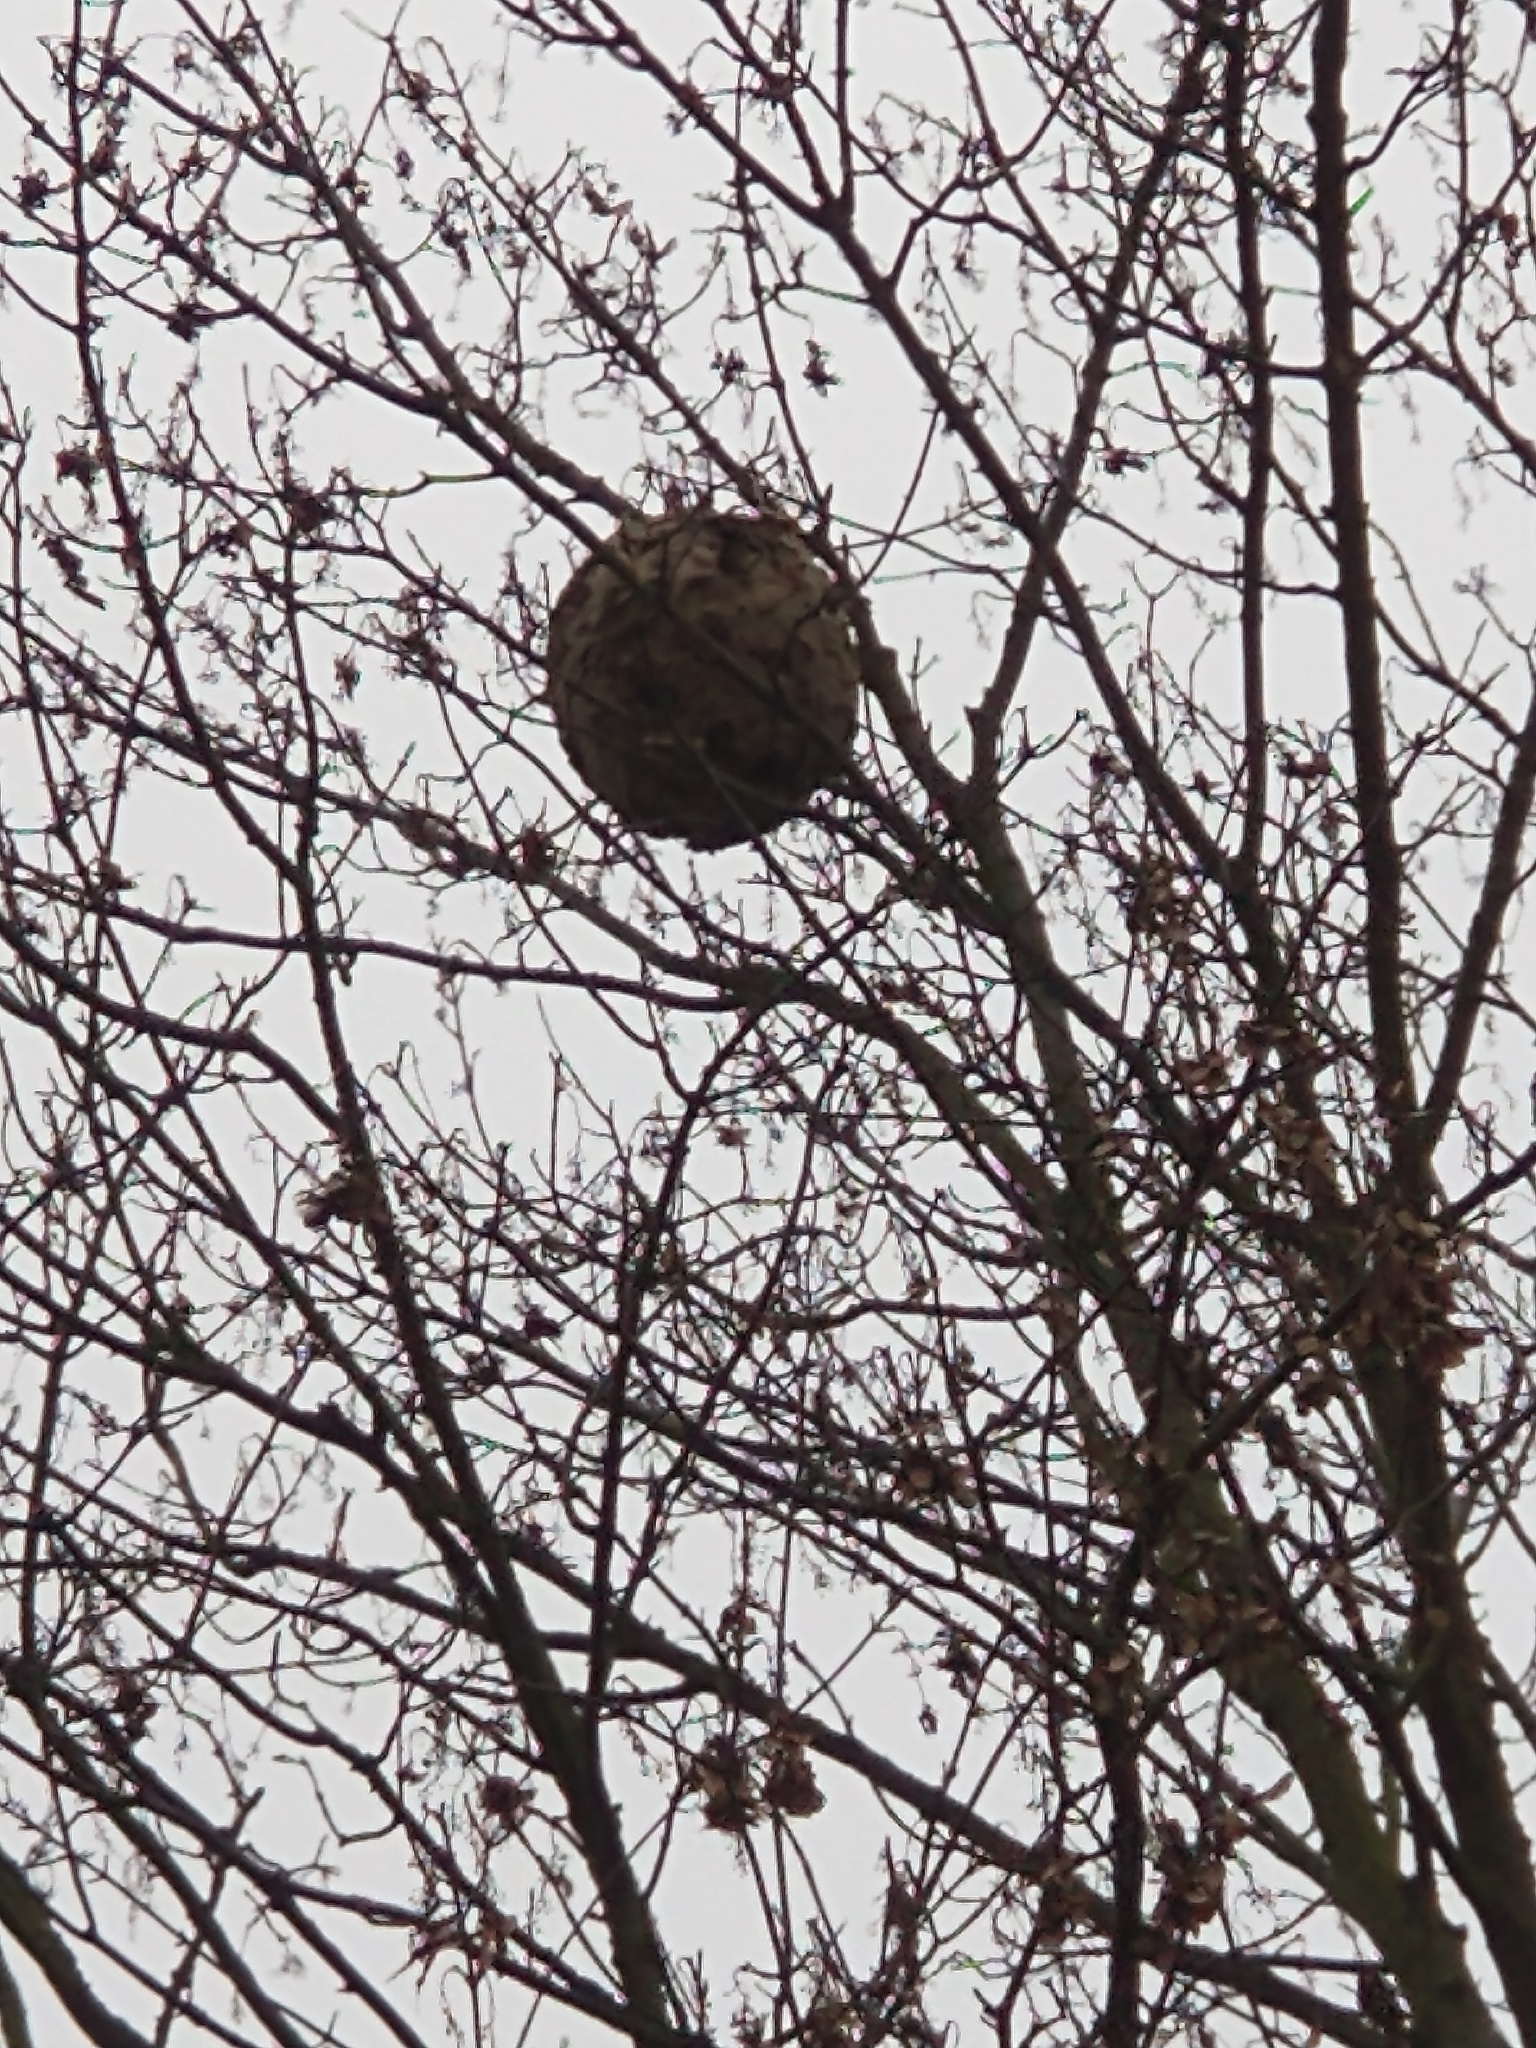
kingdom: Animalia
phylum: Arthropoda
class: Insecta
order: Hymenoptera
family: Vespidae
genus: Vespa
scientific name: Vespa velutina
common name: Asian hornet
